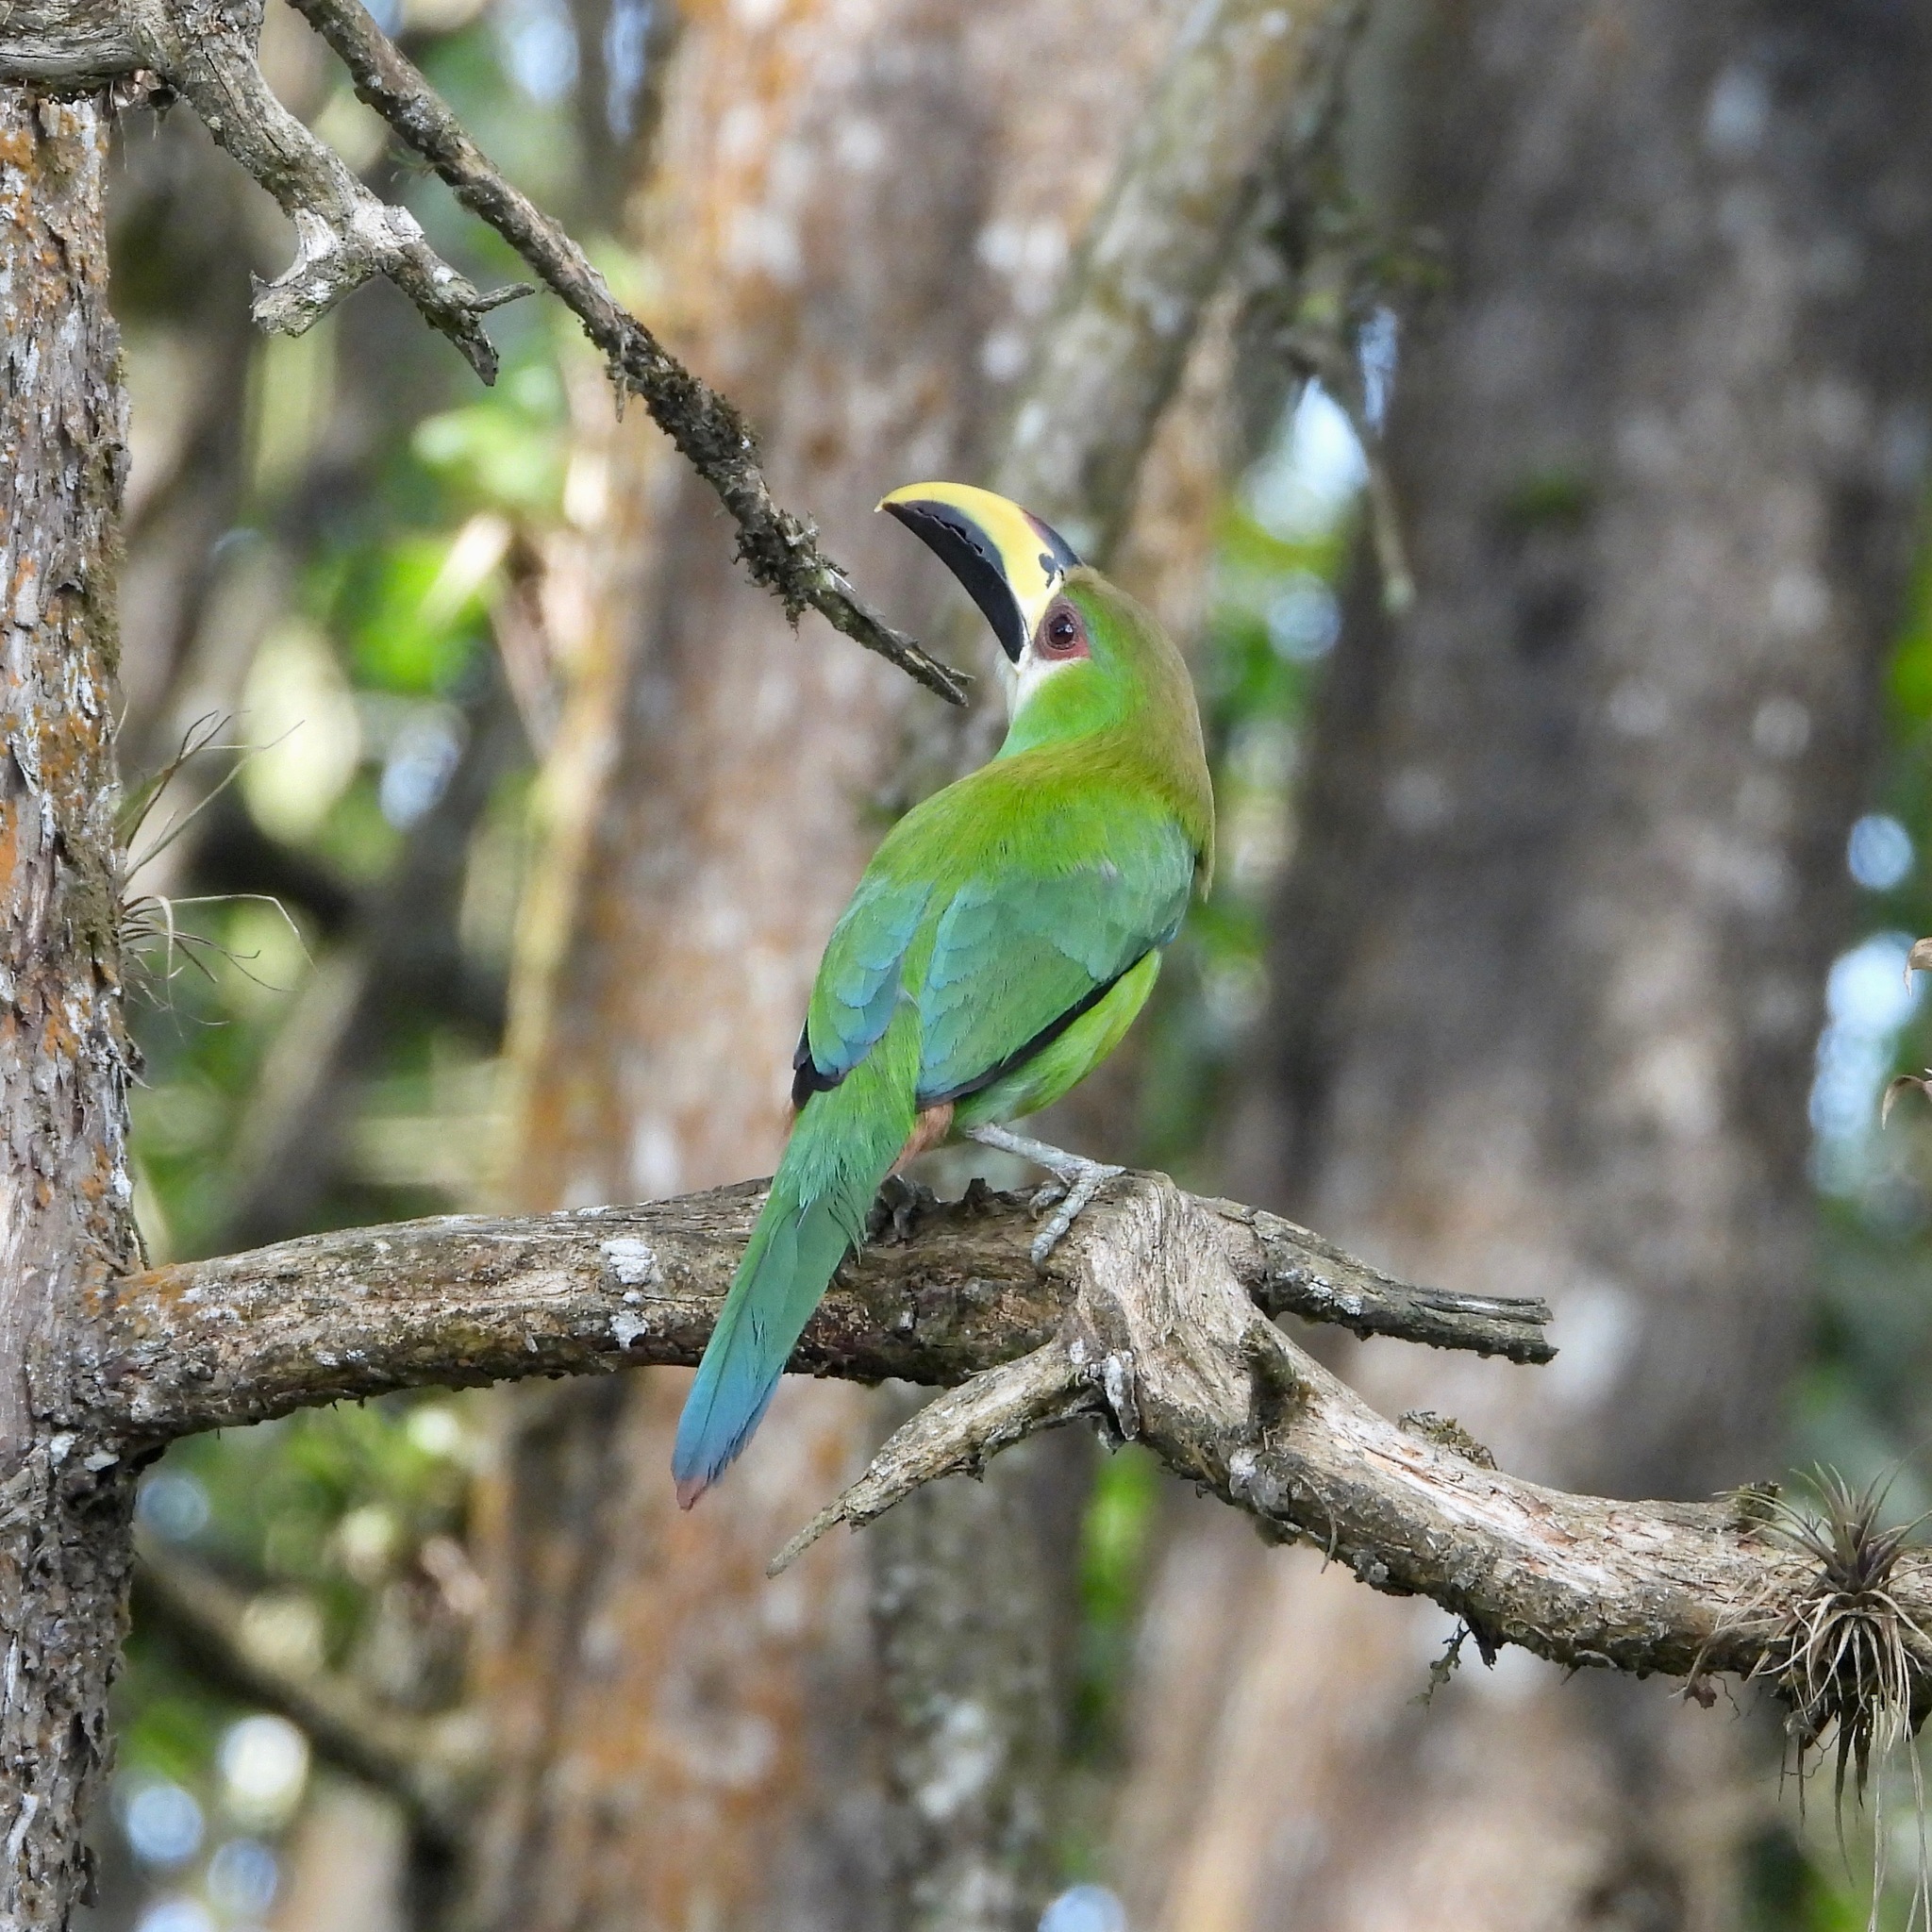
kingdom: Animalia
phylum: Chordata
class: Aves
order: Piciformes
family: Ramphastidae
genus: Aulacorhynchus
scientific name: Aulacorhynchus prasinus
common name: Emerald toucanet
